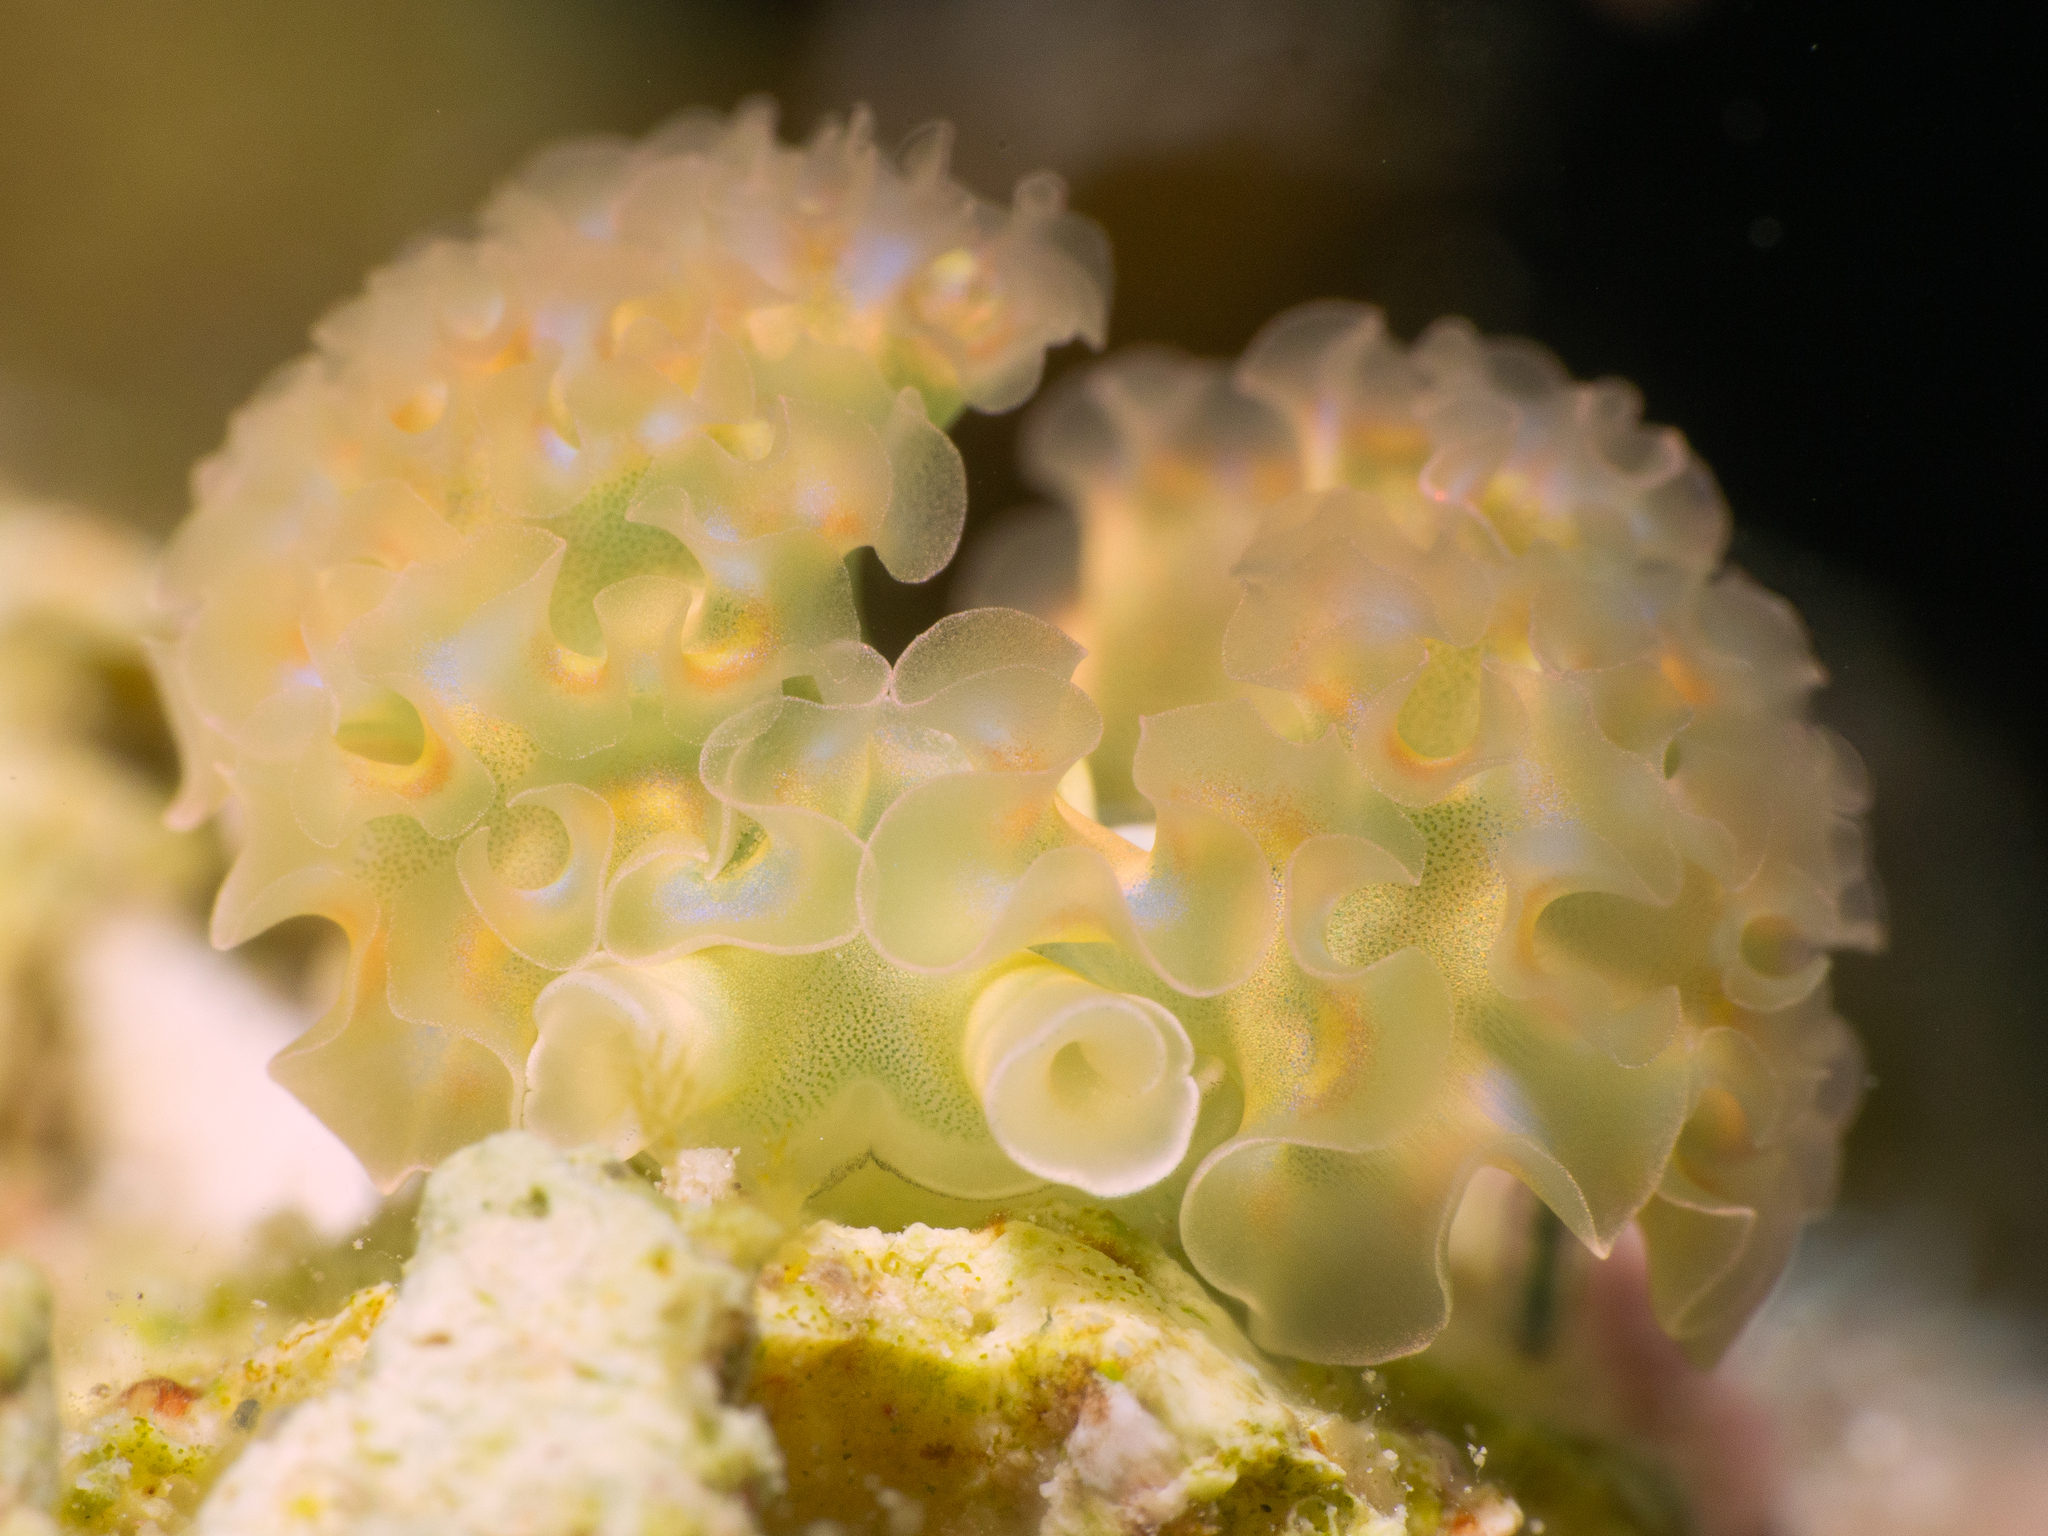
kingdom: Animalia
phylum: Mollusca
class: Gastropoda
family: Plakobranchidae
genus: Elysia
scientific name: Elysia crispata
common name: Lettuce slug
